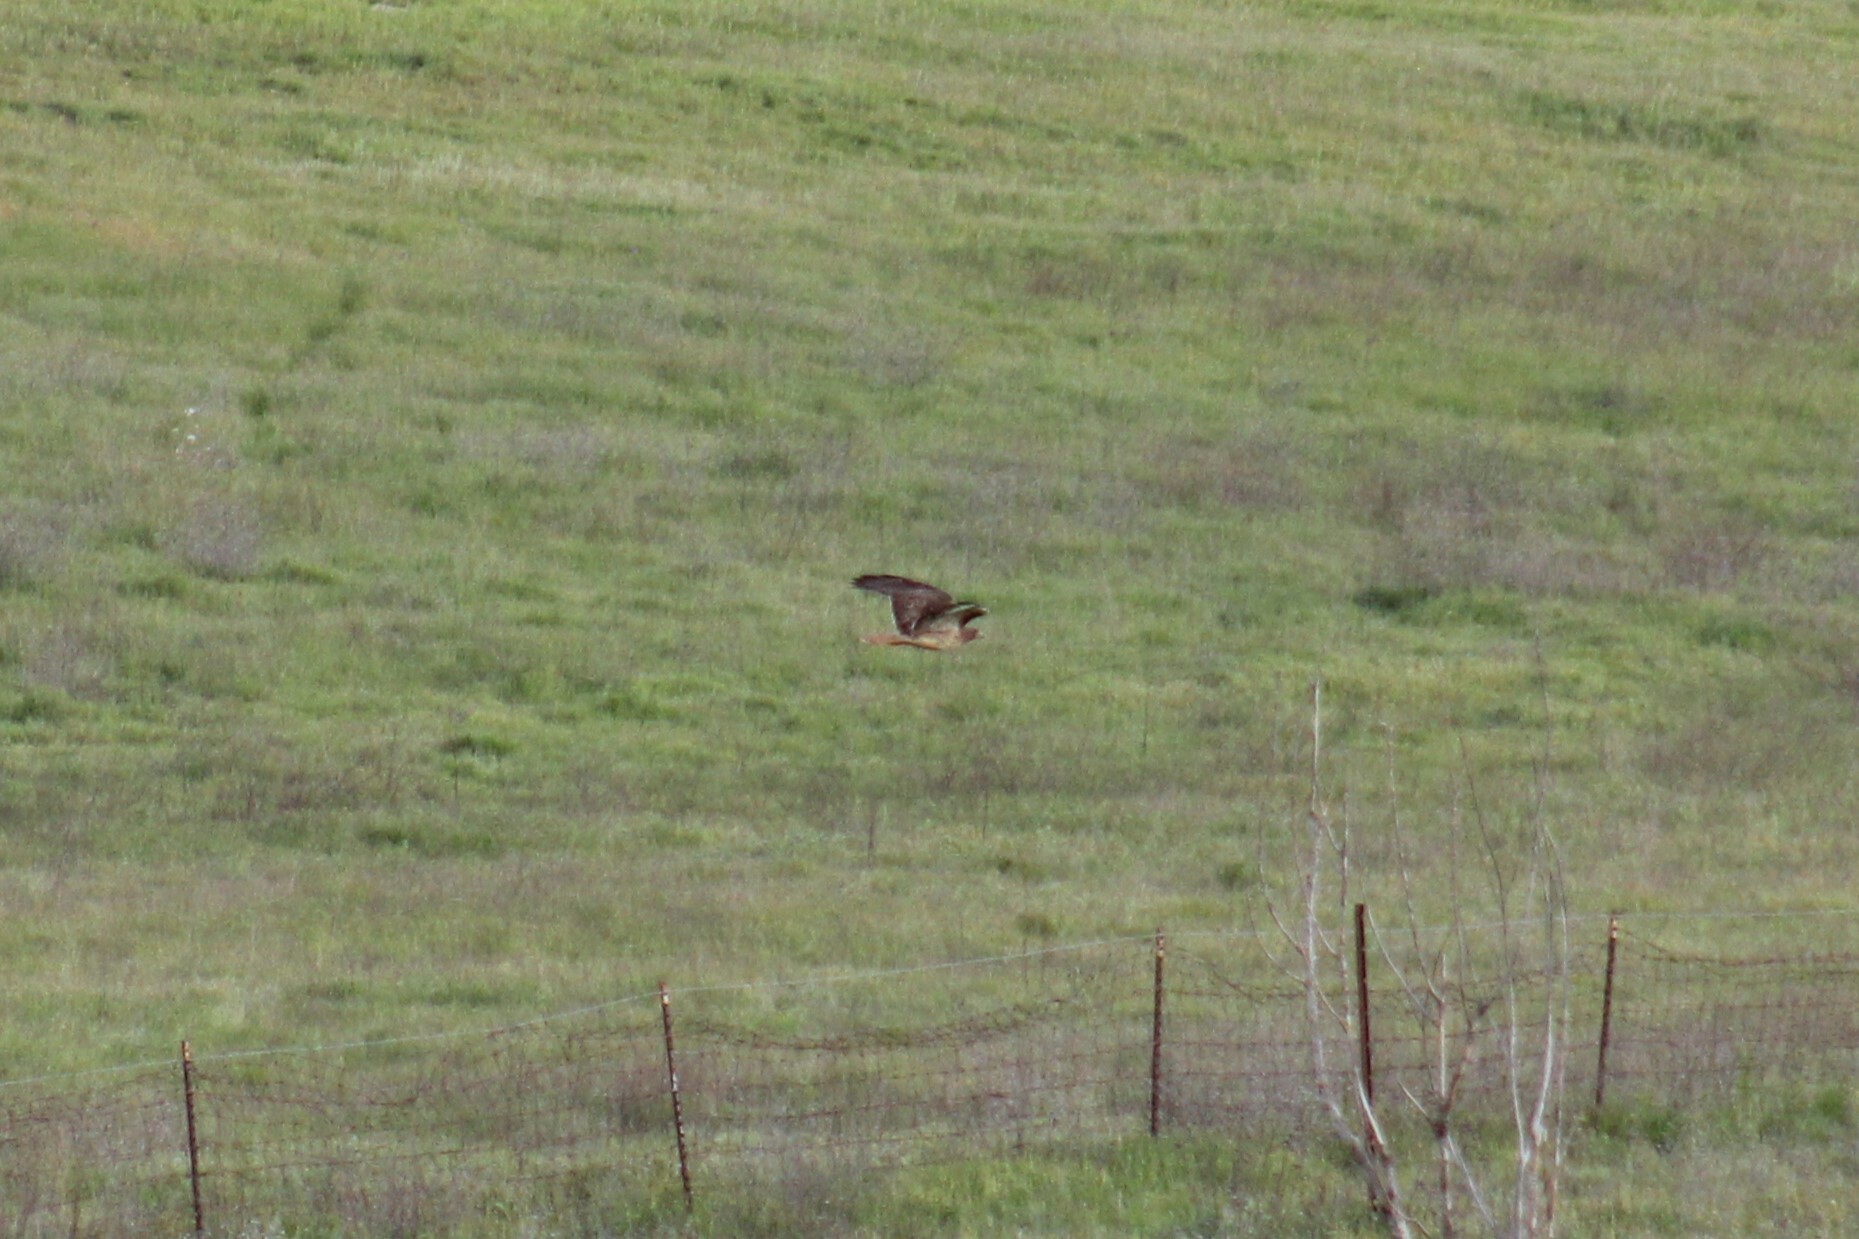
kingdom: Animalia
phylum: Chordata
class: Aves
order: Accipitriformes
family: Accipitridae
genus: Buteo
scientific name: Buteo jamaicensis
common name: Red-tailed hawk
